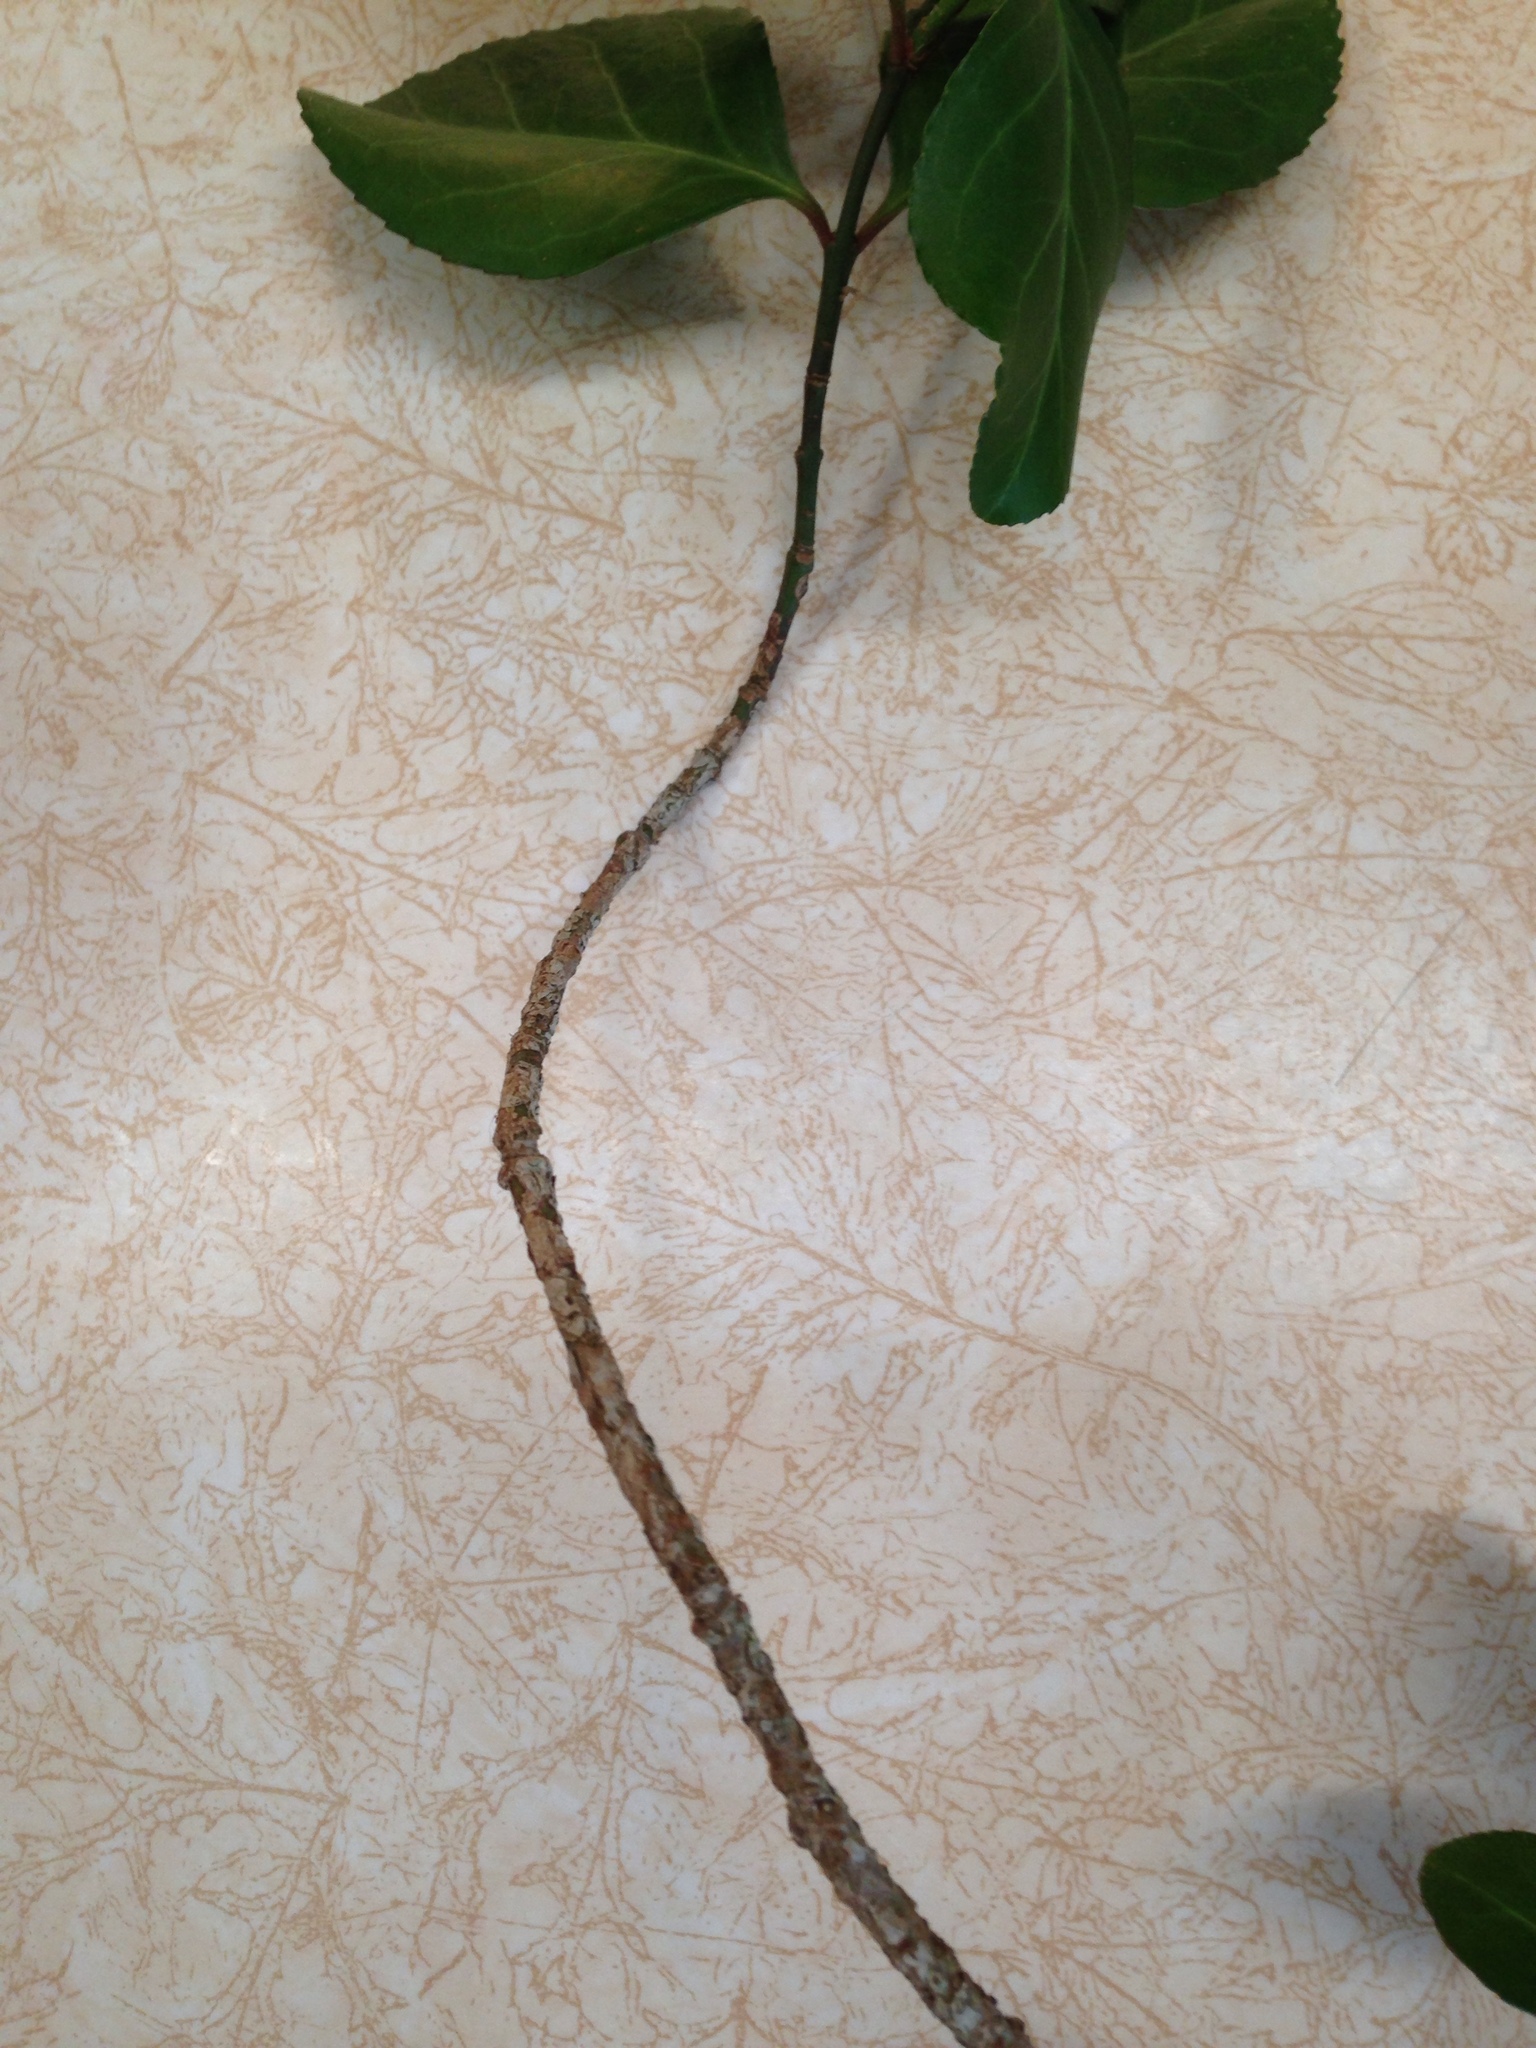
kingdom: Plantae
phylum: Tracheophyta
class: Magnoliopsida
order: Celastrales
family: Celastraceae
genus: Euonymus
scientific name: Euonymus fortunei
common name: Climbing euonymus
